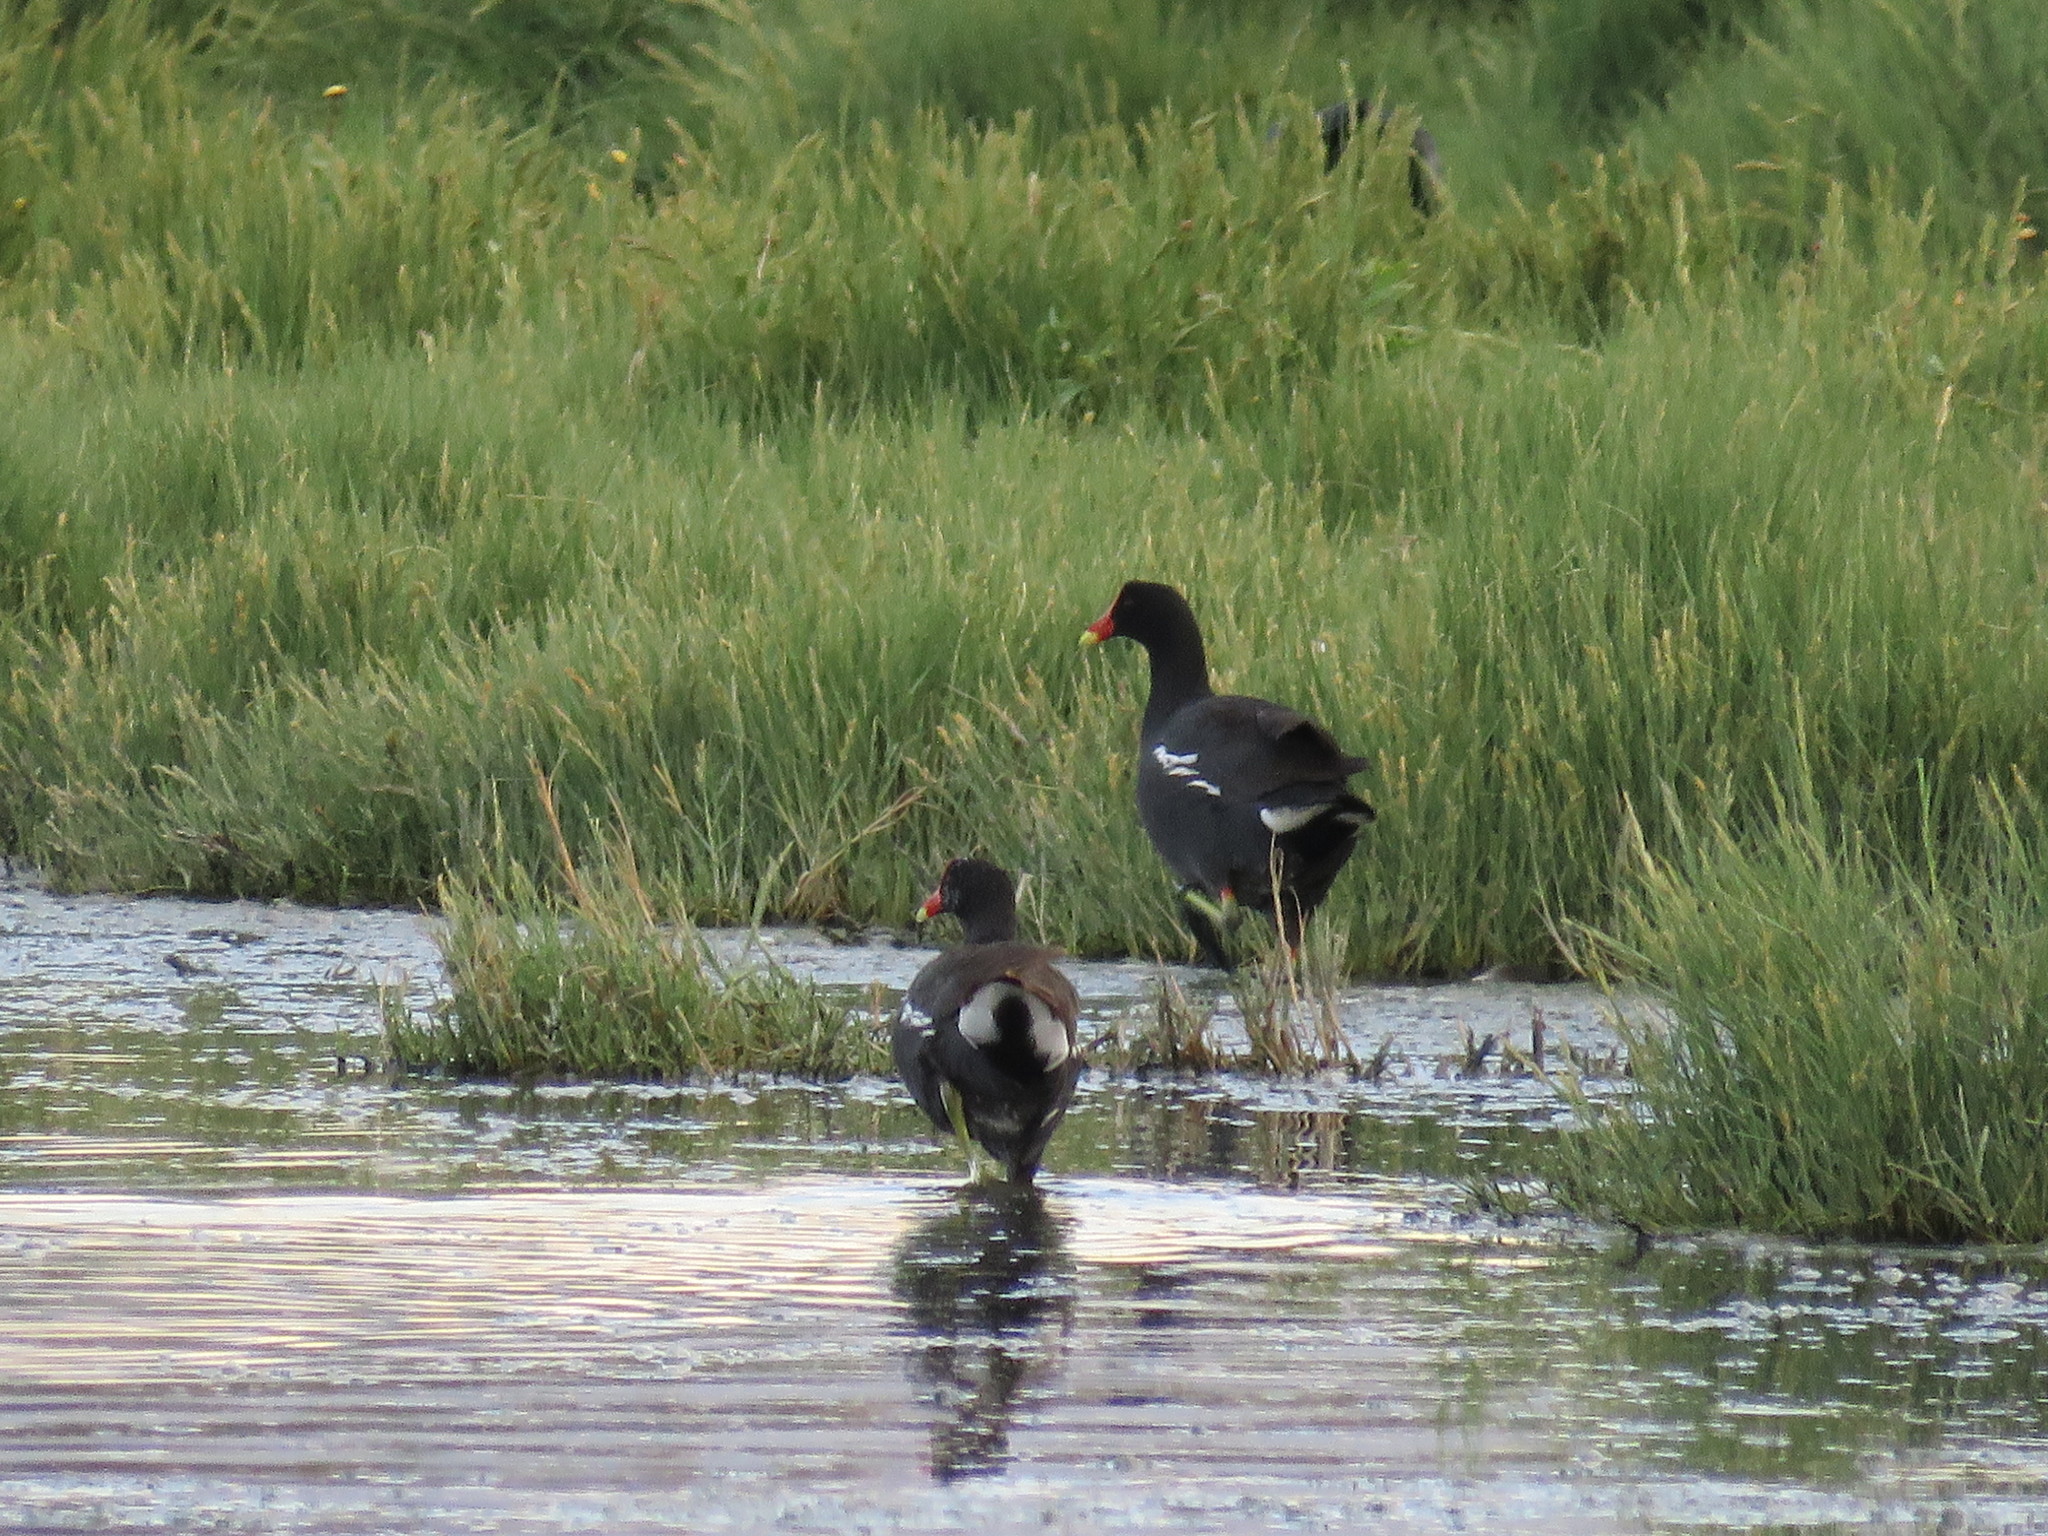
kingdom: Animalia
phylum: Chordata
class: Aves
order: Gruiformes
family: Rallidae
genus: Gallinula
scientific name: Gallinula chloropus
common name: Common moorhen
